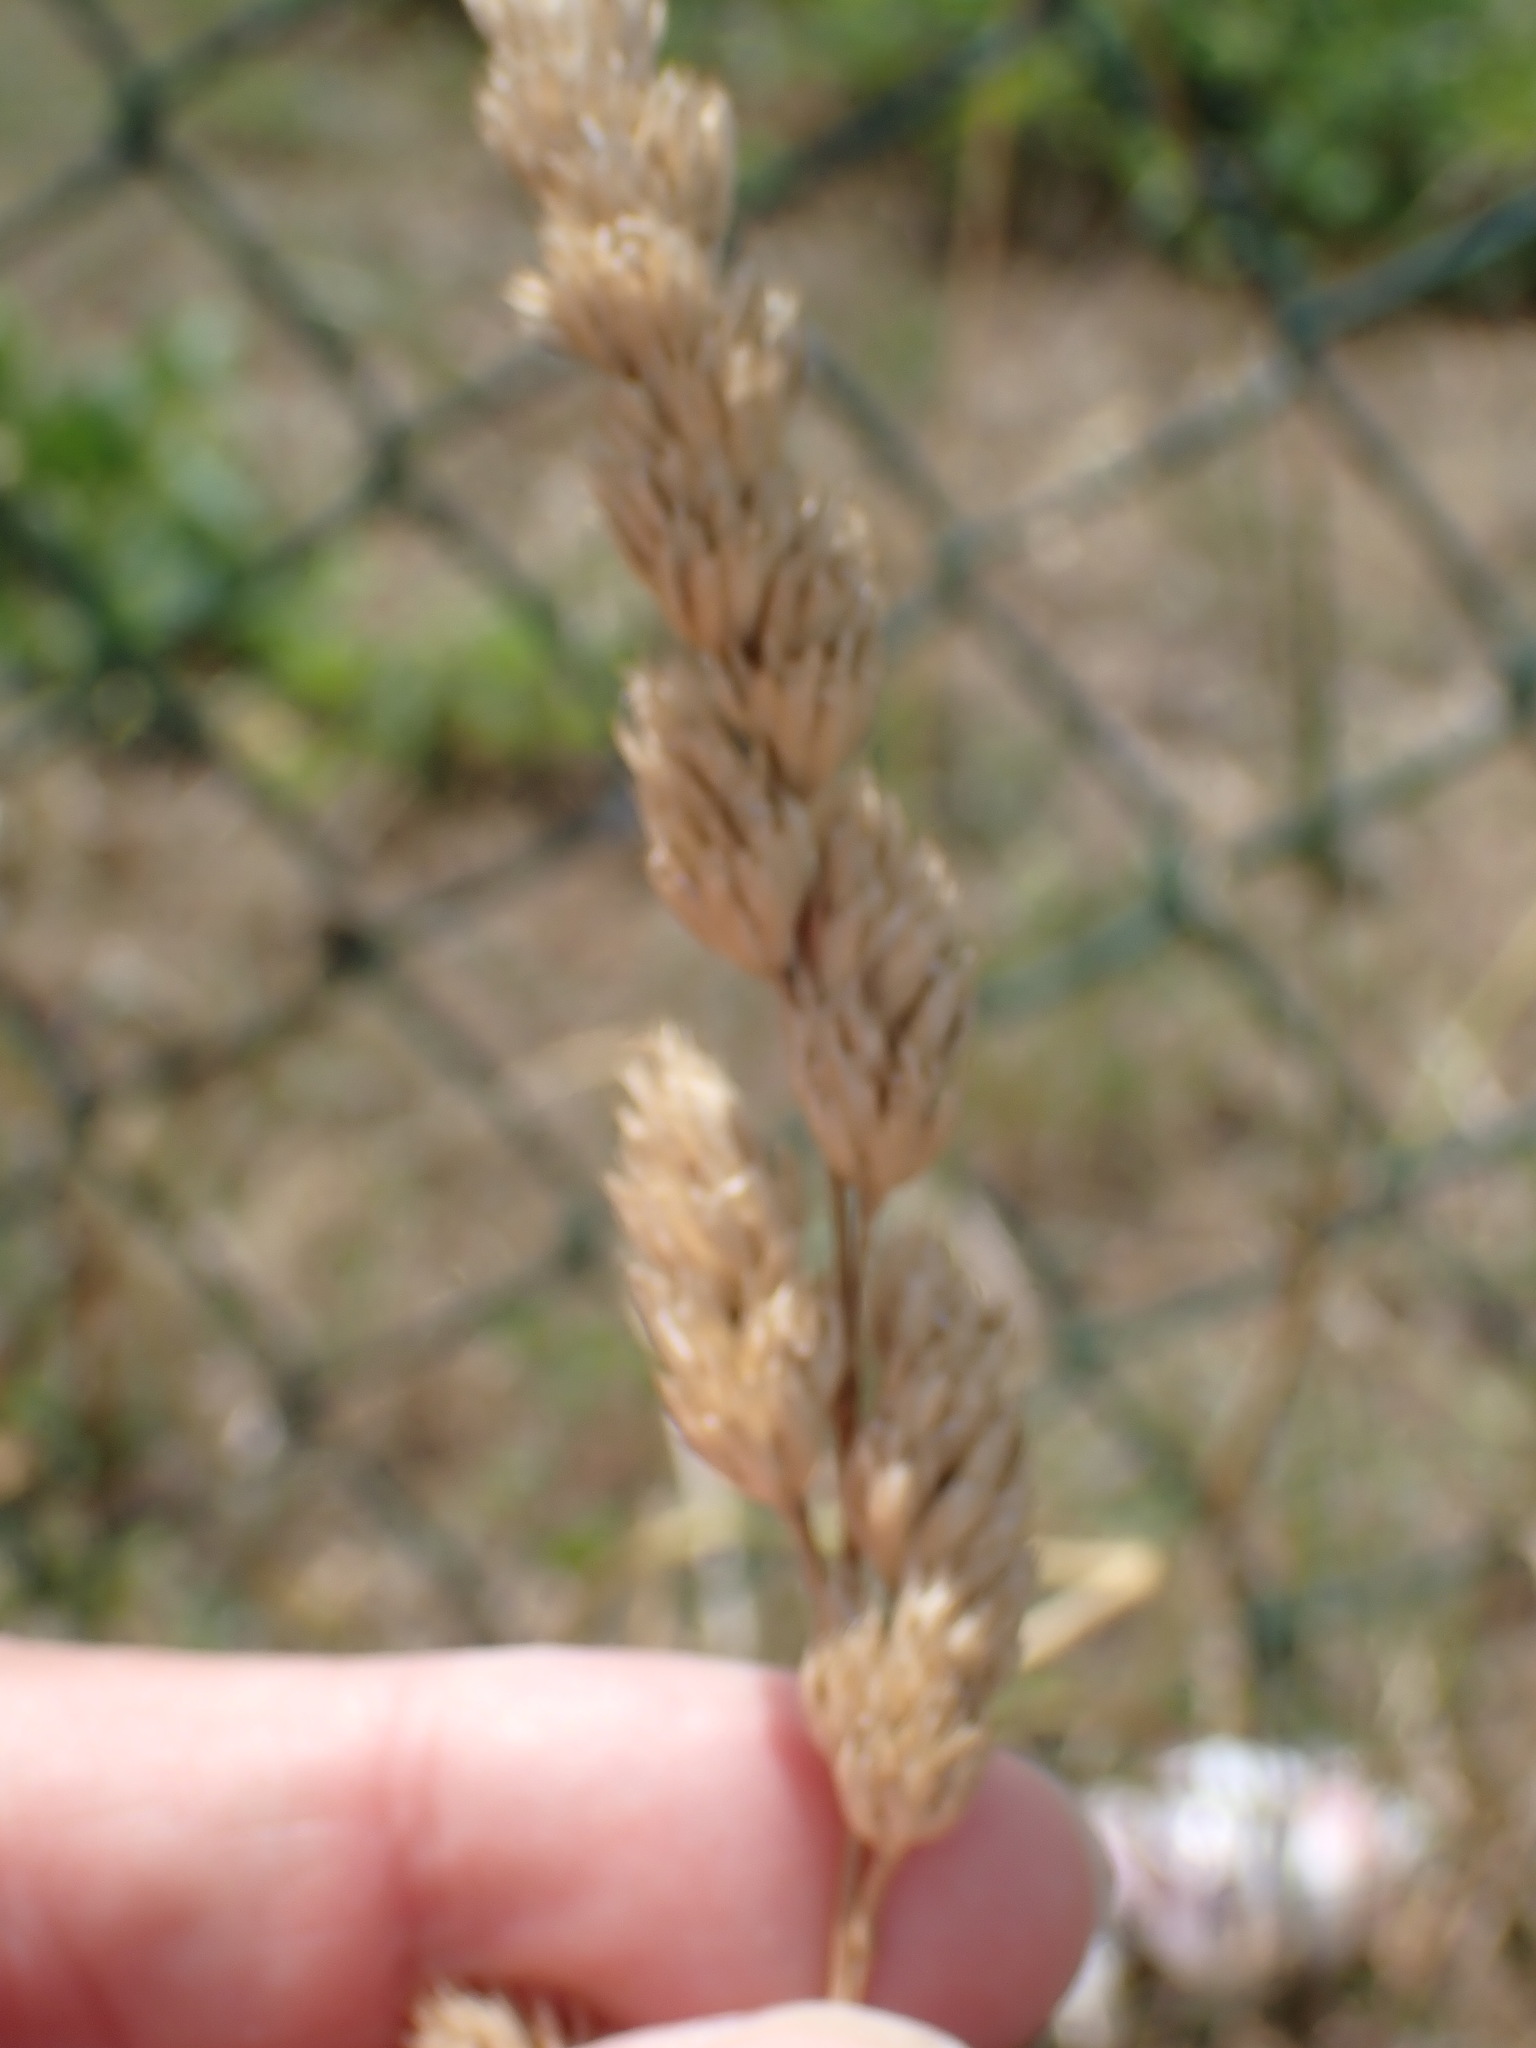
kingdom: Plantae
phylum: Tracheophyta
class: Liliopsida
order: Poales
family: Poaceae
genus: Dactylis
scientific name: Dactylis glomerata
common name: Orchardgrass
